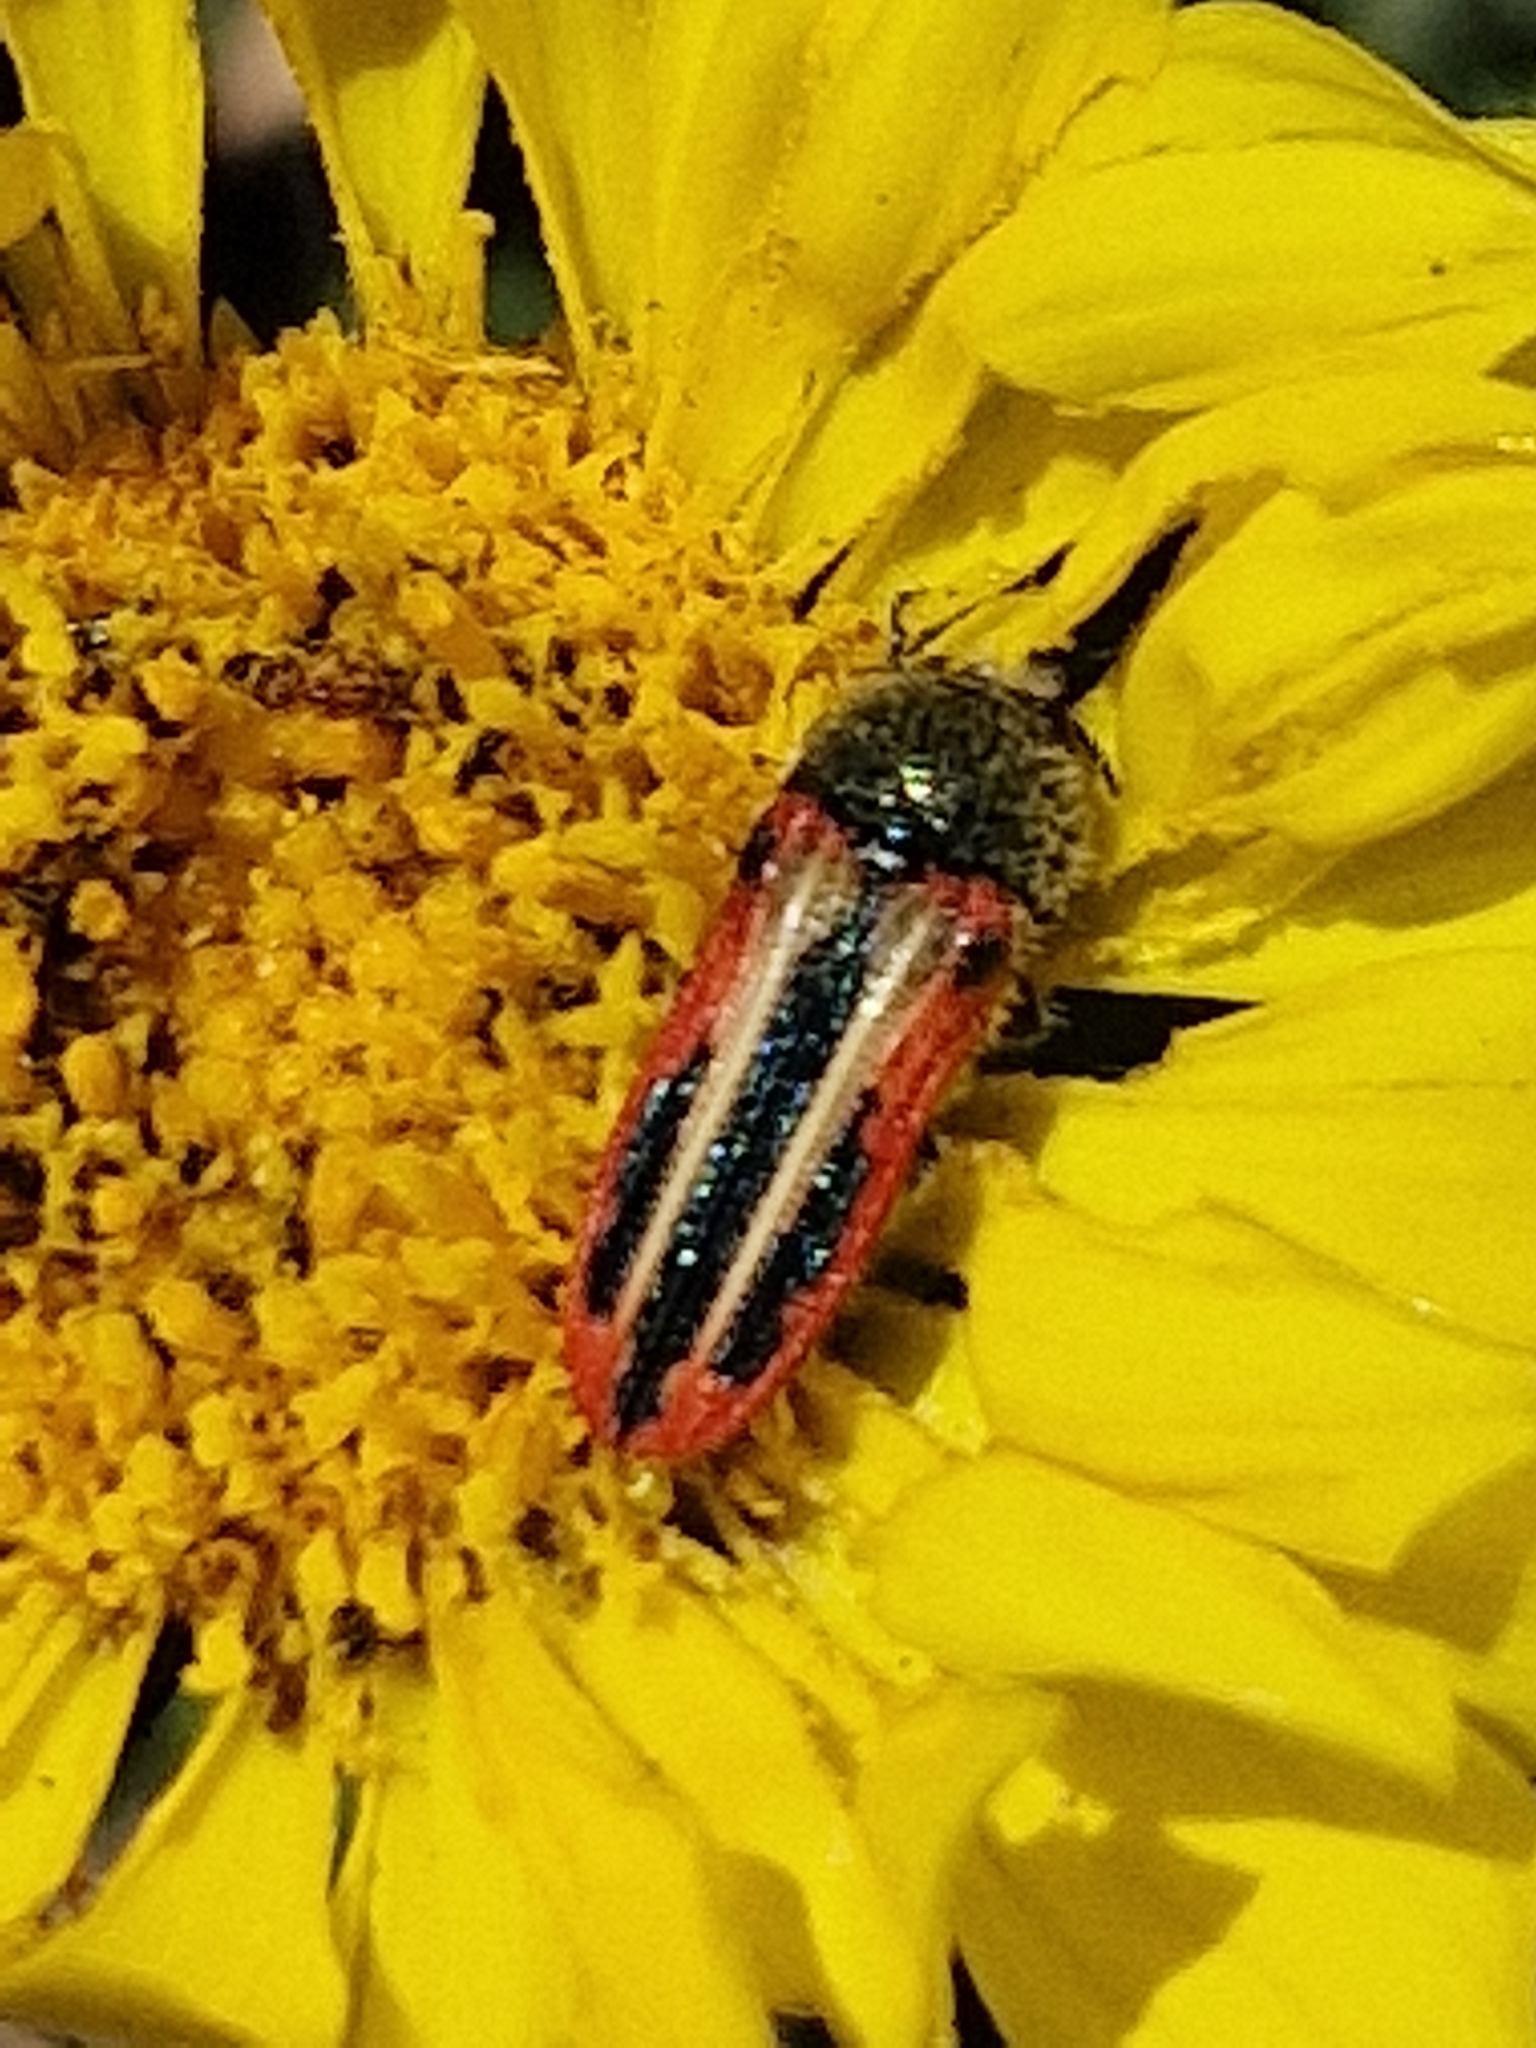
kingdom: Animalia
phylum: Arthropoda
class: Insecta
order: Coleoptera
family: Buprestidae
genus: Lasionota
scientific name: Lasionota alternans
